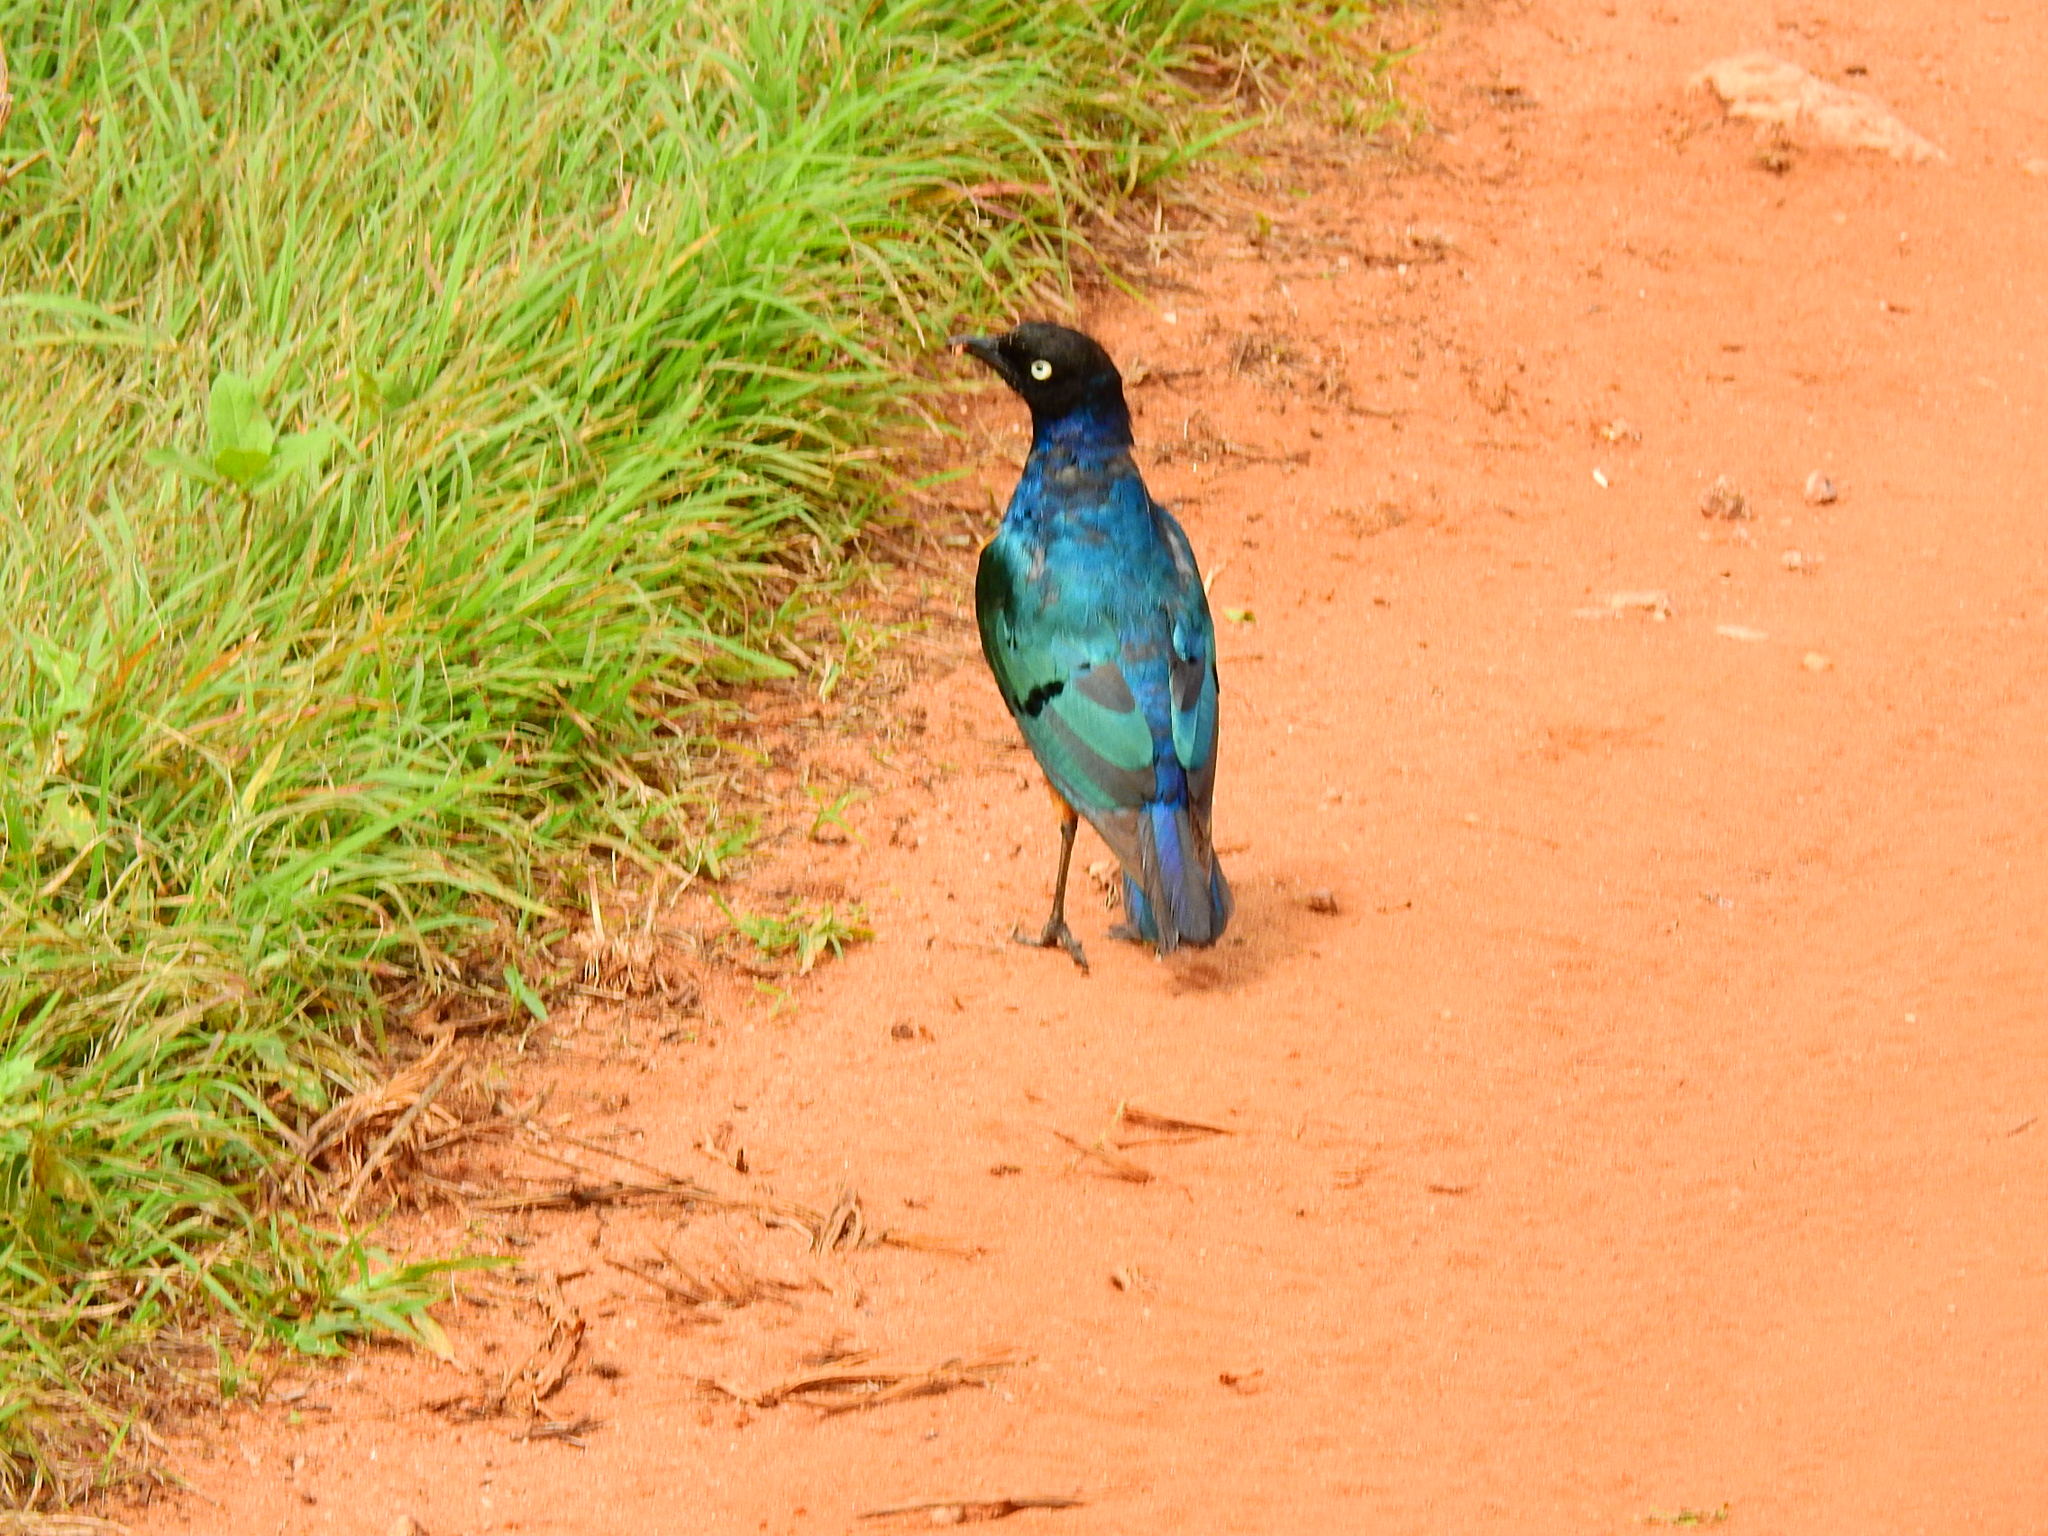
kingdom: Animalia
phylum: Chordata
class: Aves
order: Passeriformes
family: Sturnidae
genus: Lamprotornis
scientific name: Lamprotornis superbus
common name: Superb starling
